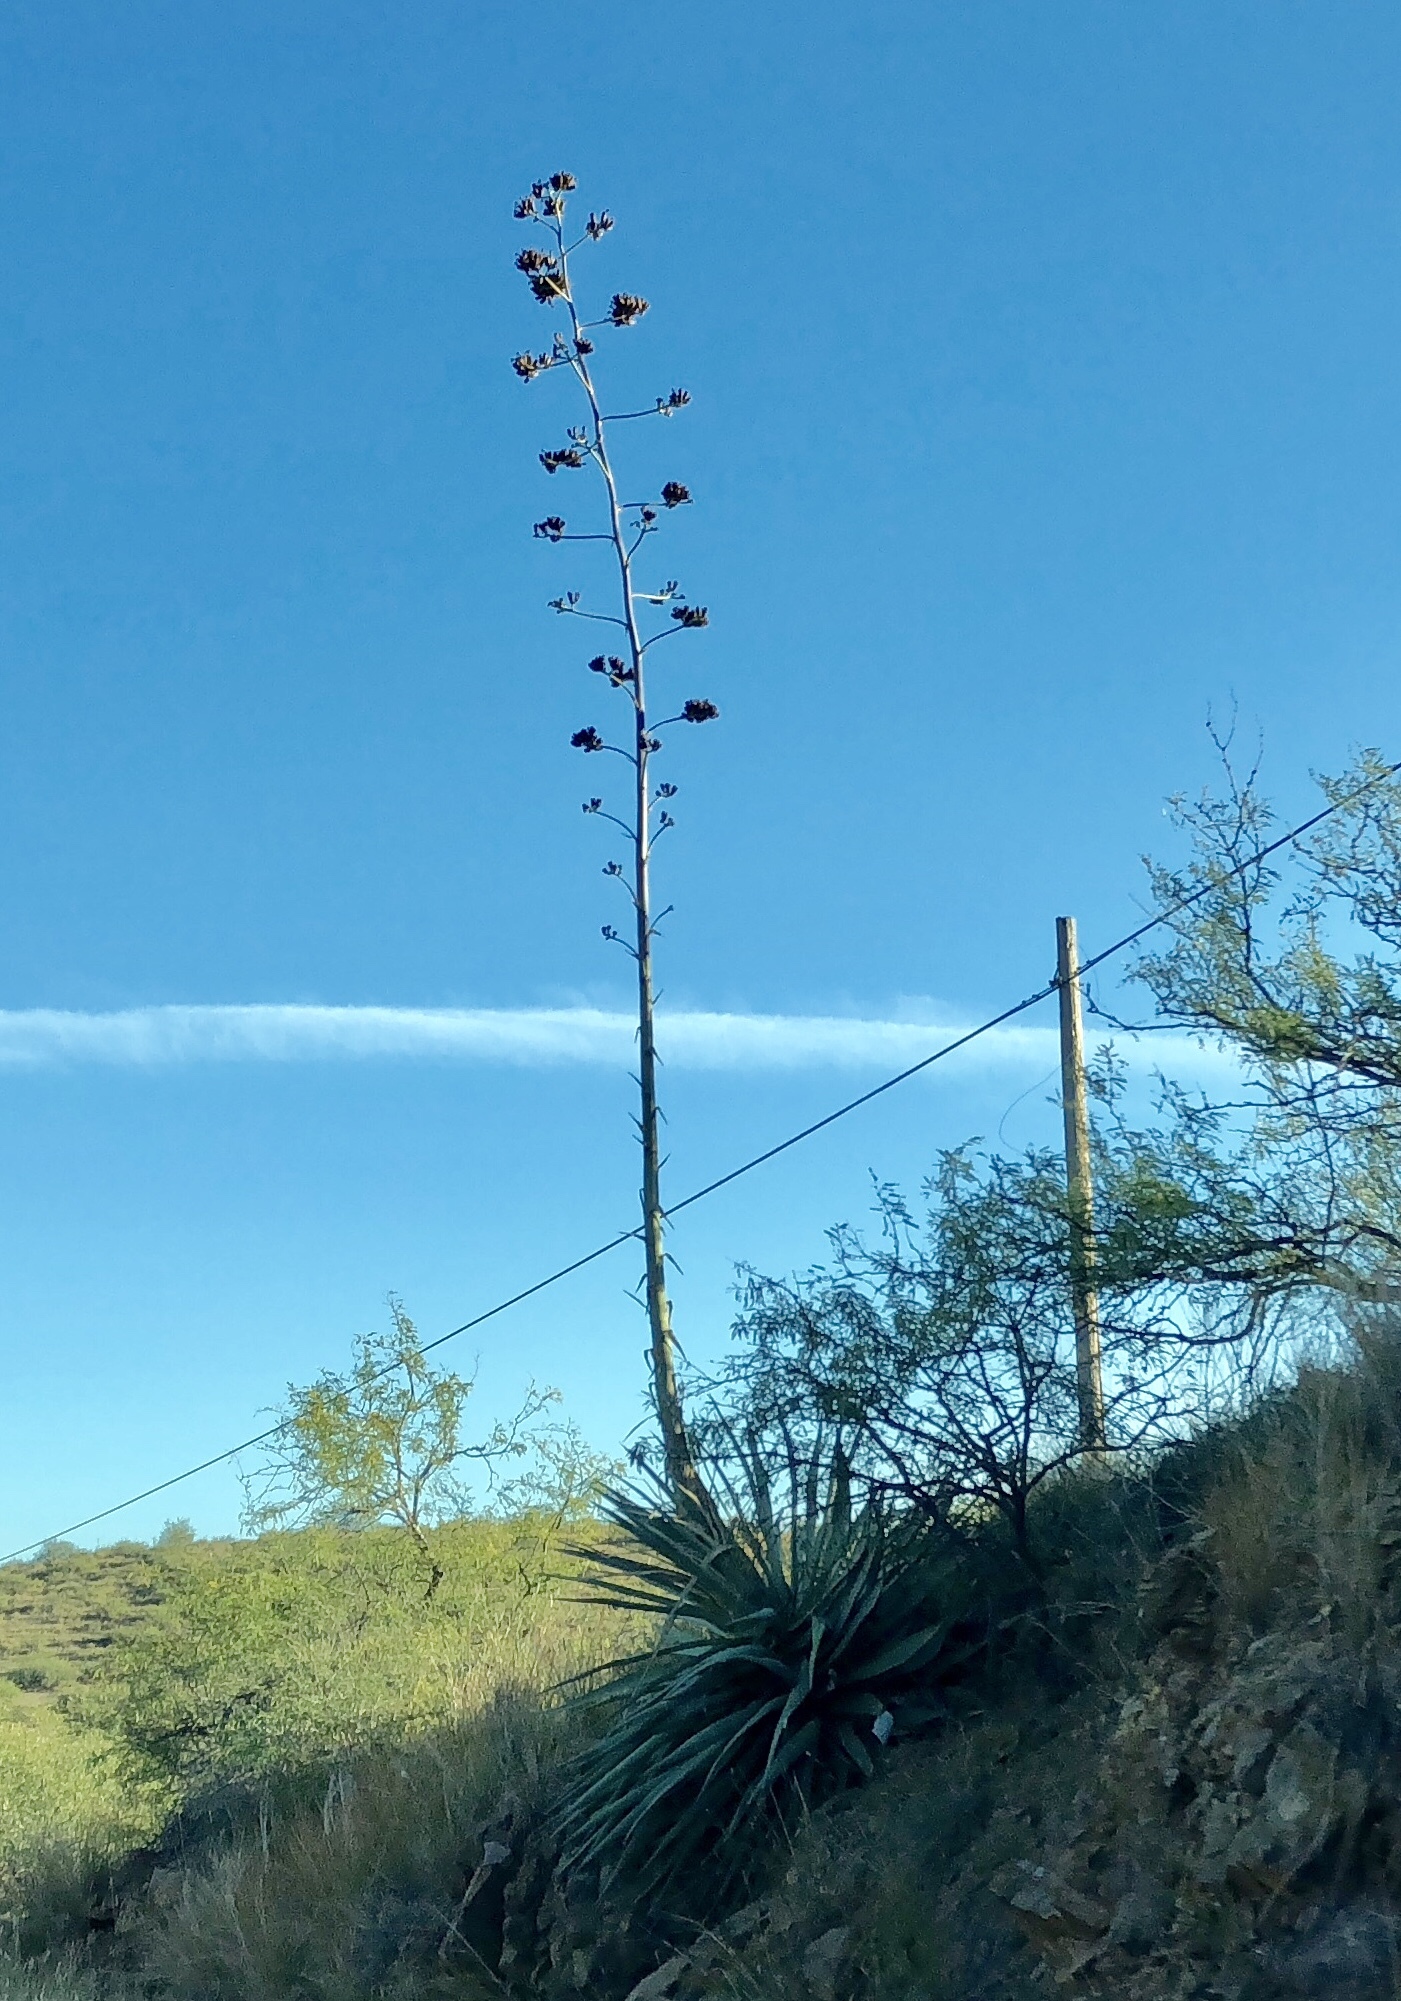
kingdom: Plantae
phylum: Tracheophyta
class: Liliopsida
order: Asparagales
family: Asparagaceae
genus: Agave
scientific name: Agave palmeri
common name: Palmer agave
